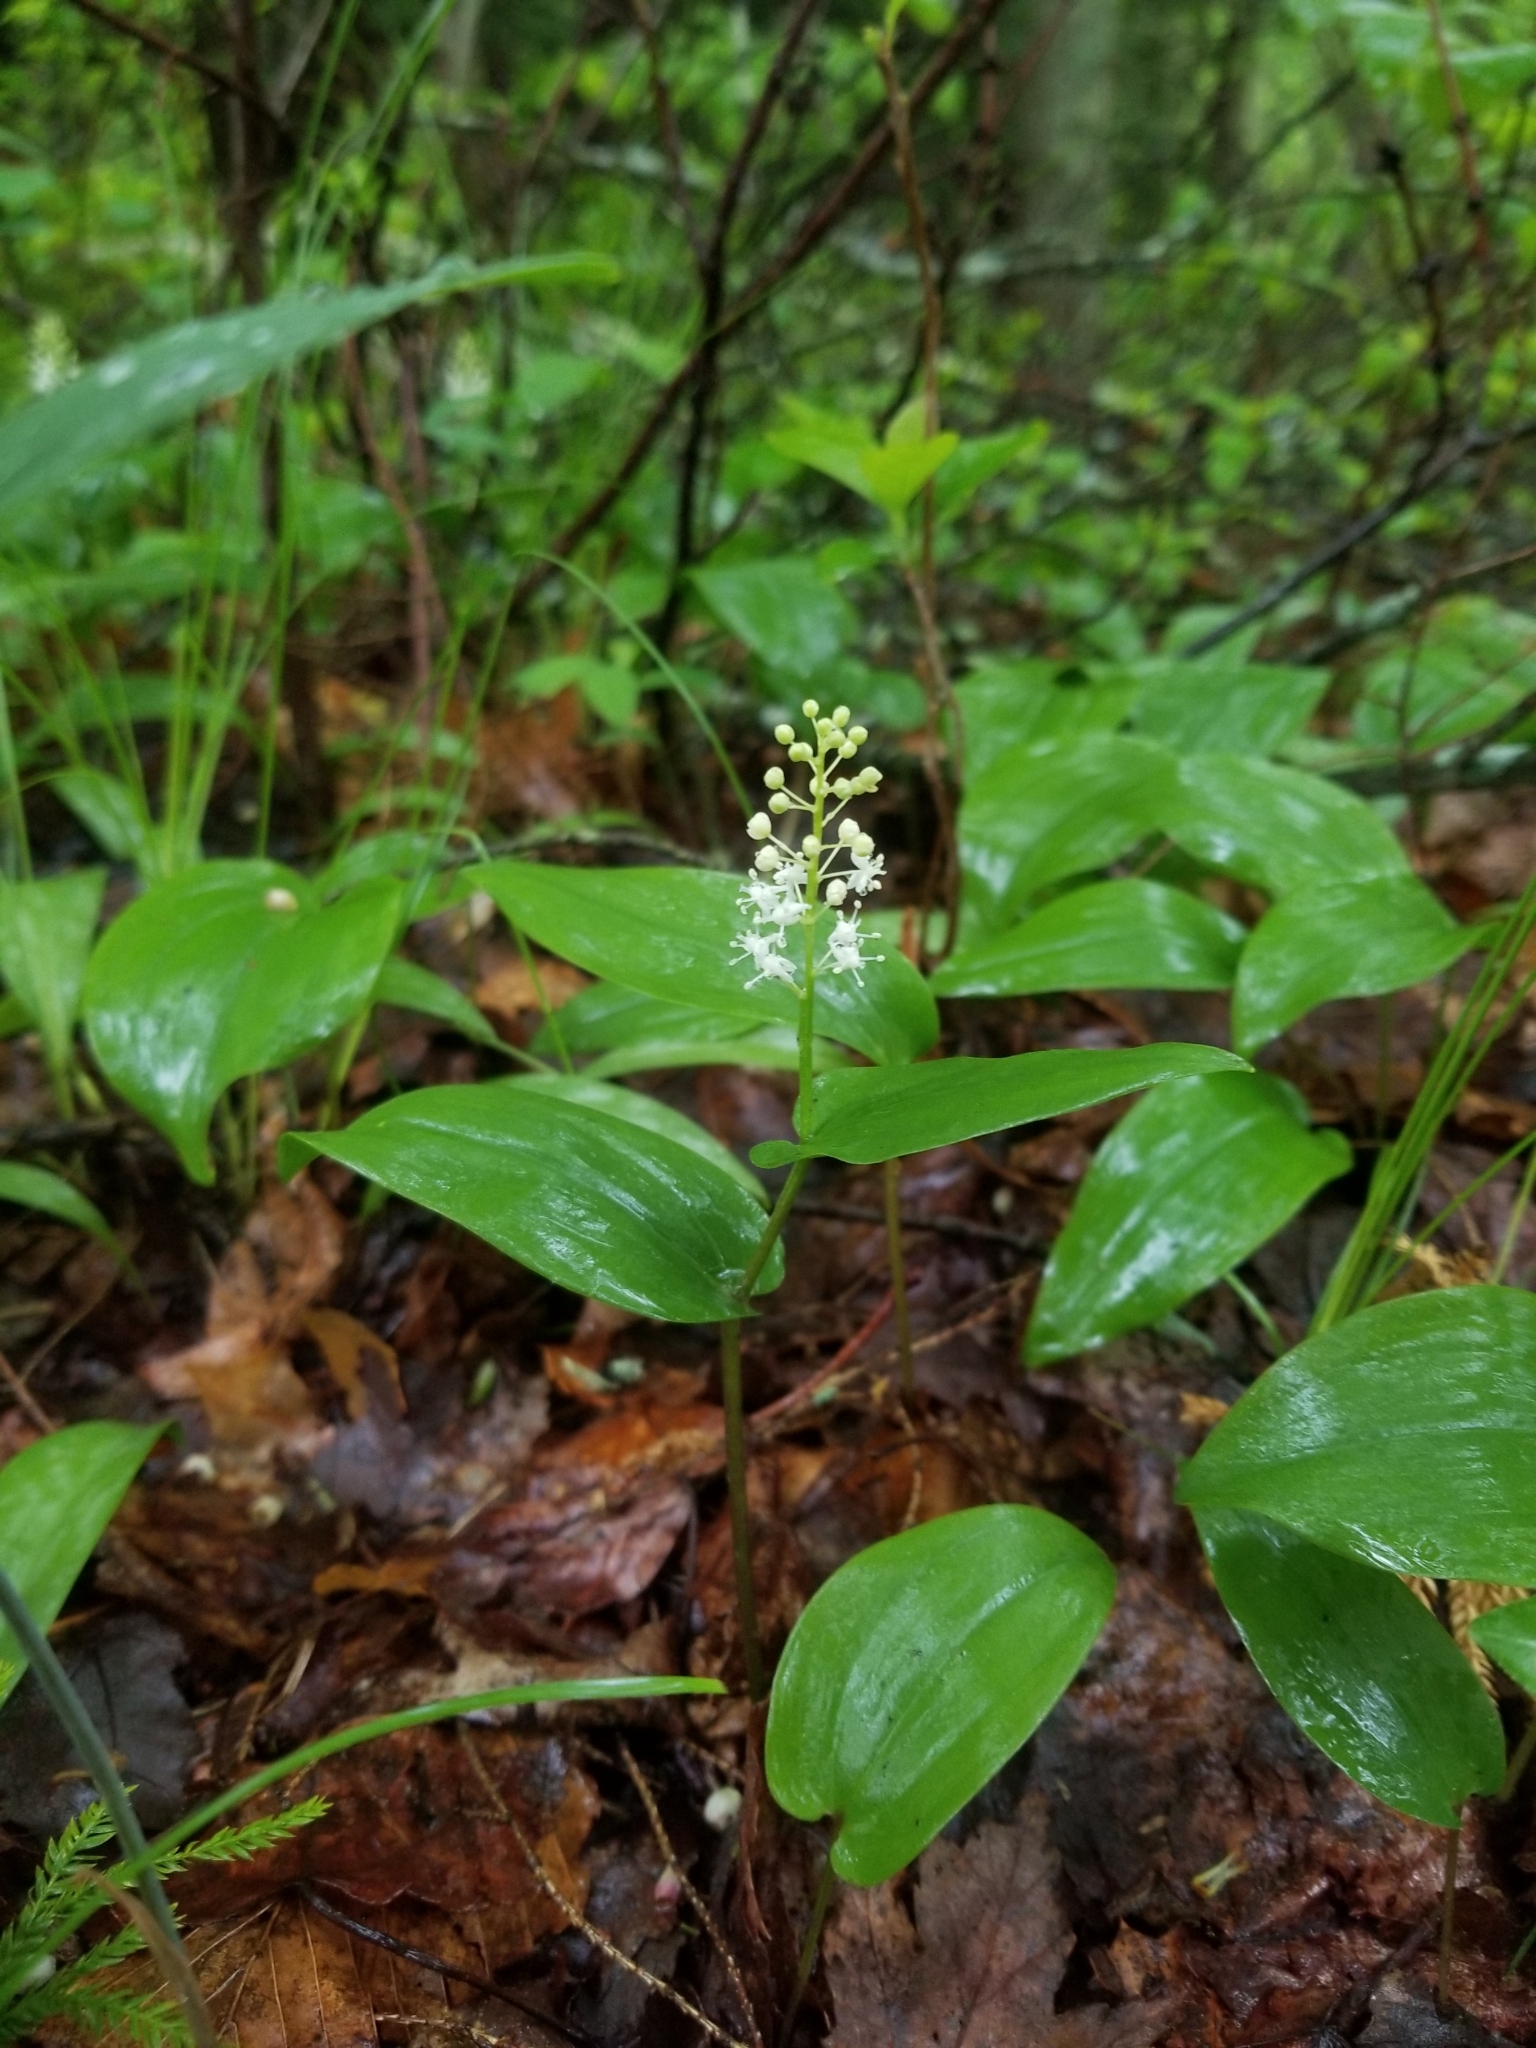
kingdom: Plantae
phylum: Tracheophyta
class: Liliopsida
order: Asparagales
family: Asparagaceae
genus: Maianthemum
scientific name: Maianthemum canadense
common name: False lily-of-the-valley
